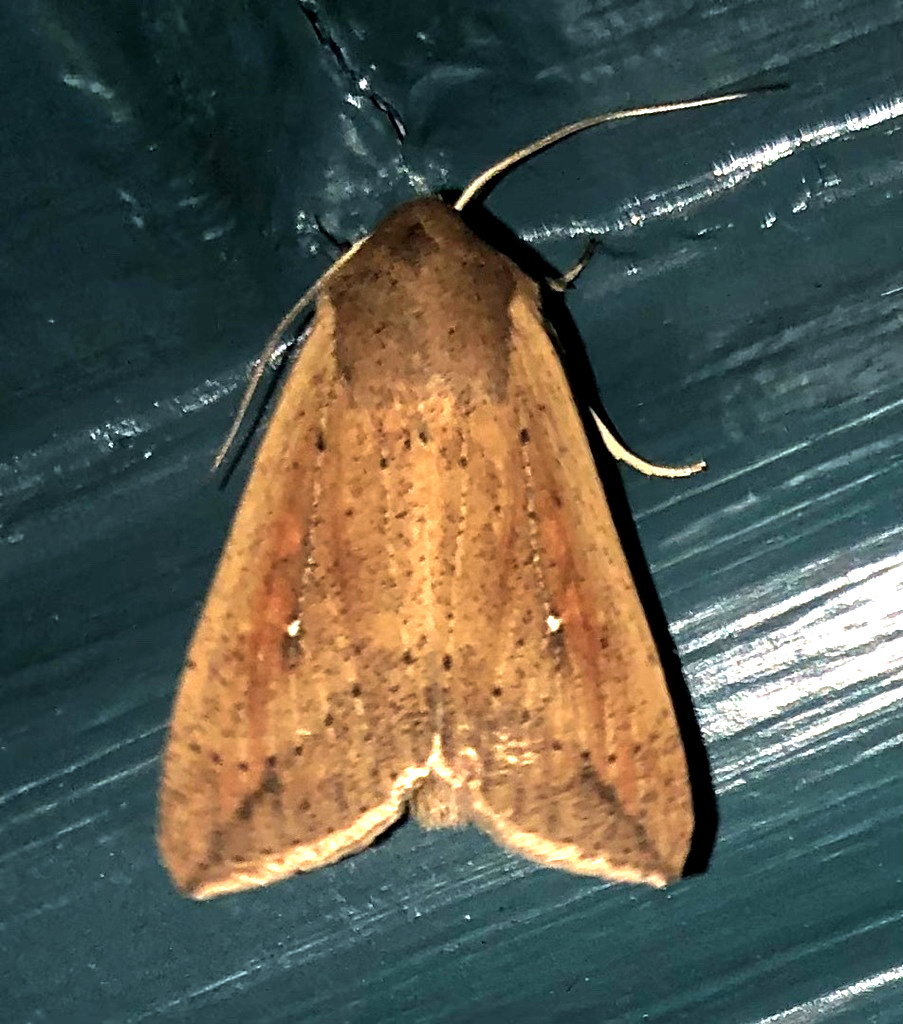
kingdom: Animalia
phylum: Arthropoda
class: Insecta
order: Lepidoptera
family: Noctuidae
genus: Mythimna
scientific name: Mythimna unipuncta
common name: White-speck
